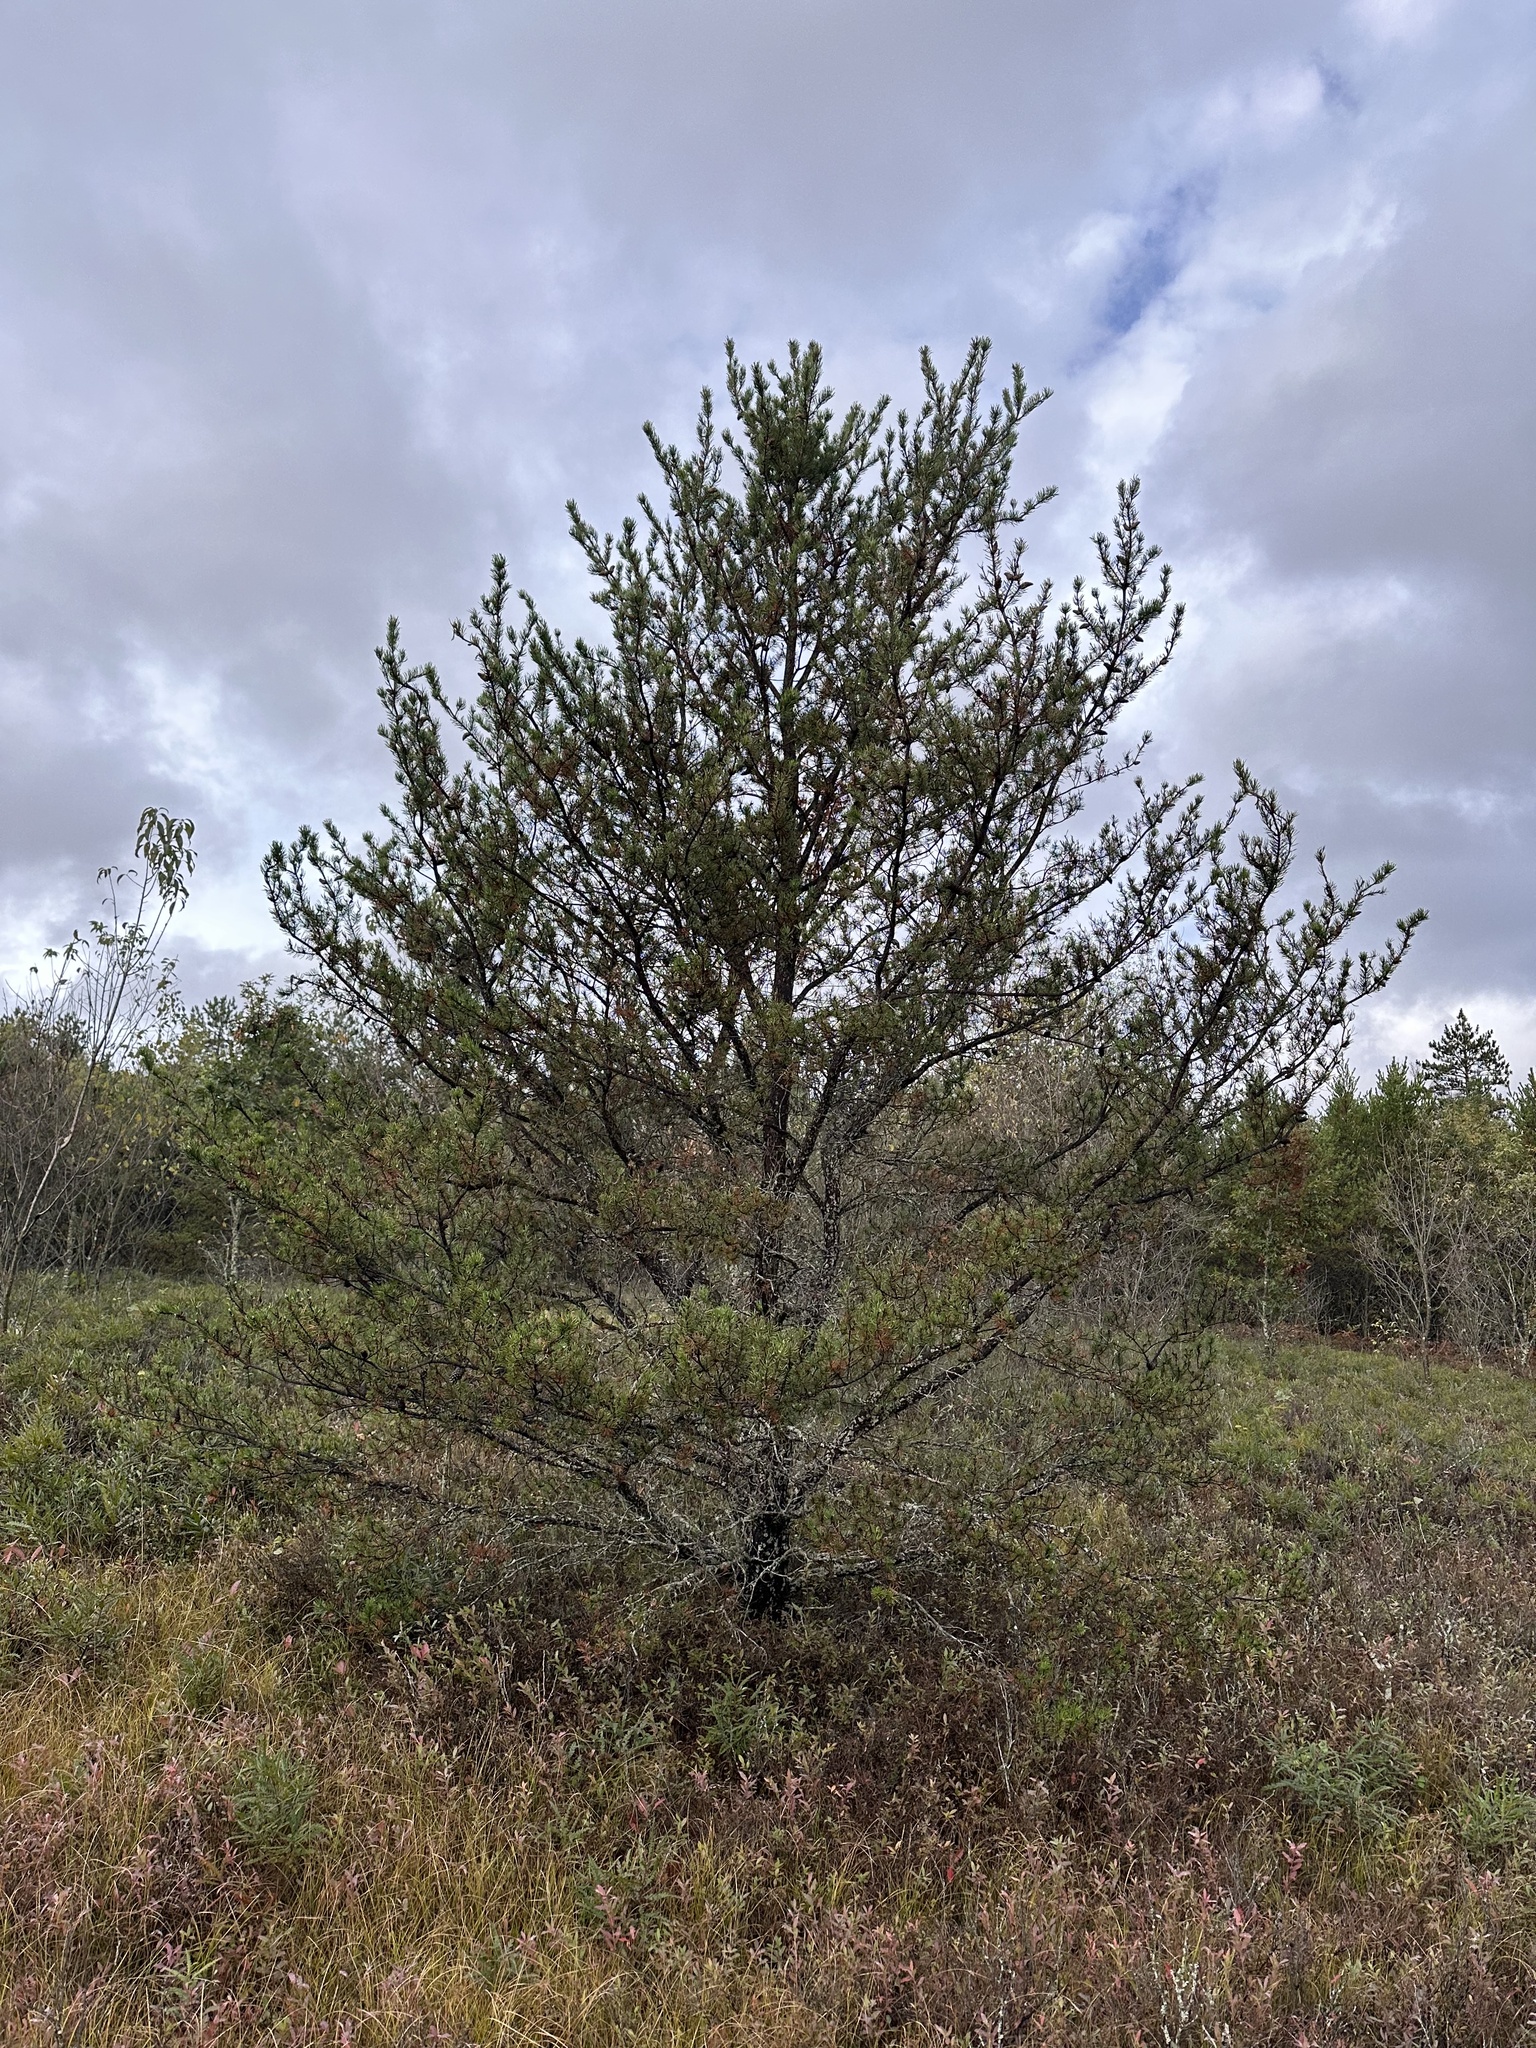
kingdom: Plantae
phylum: Tracheophyta
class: Pinopsida
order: Pinales
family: Pinaceae
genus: Pinus
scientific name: Pinus banksiana
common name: Jack pine
